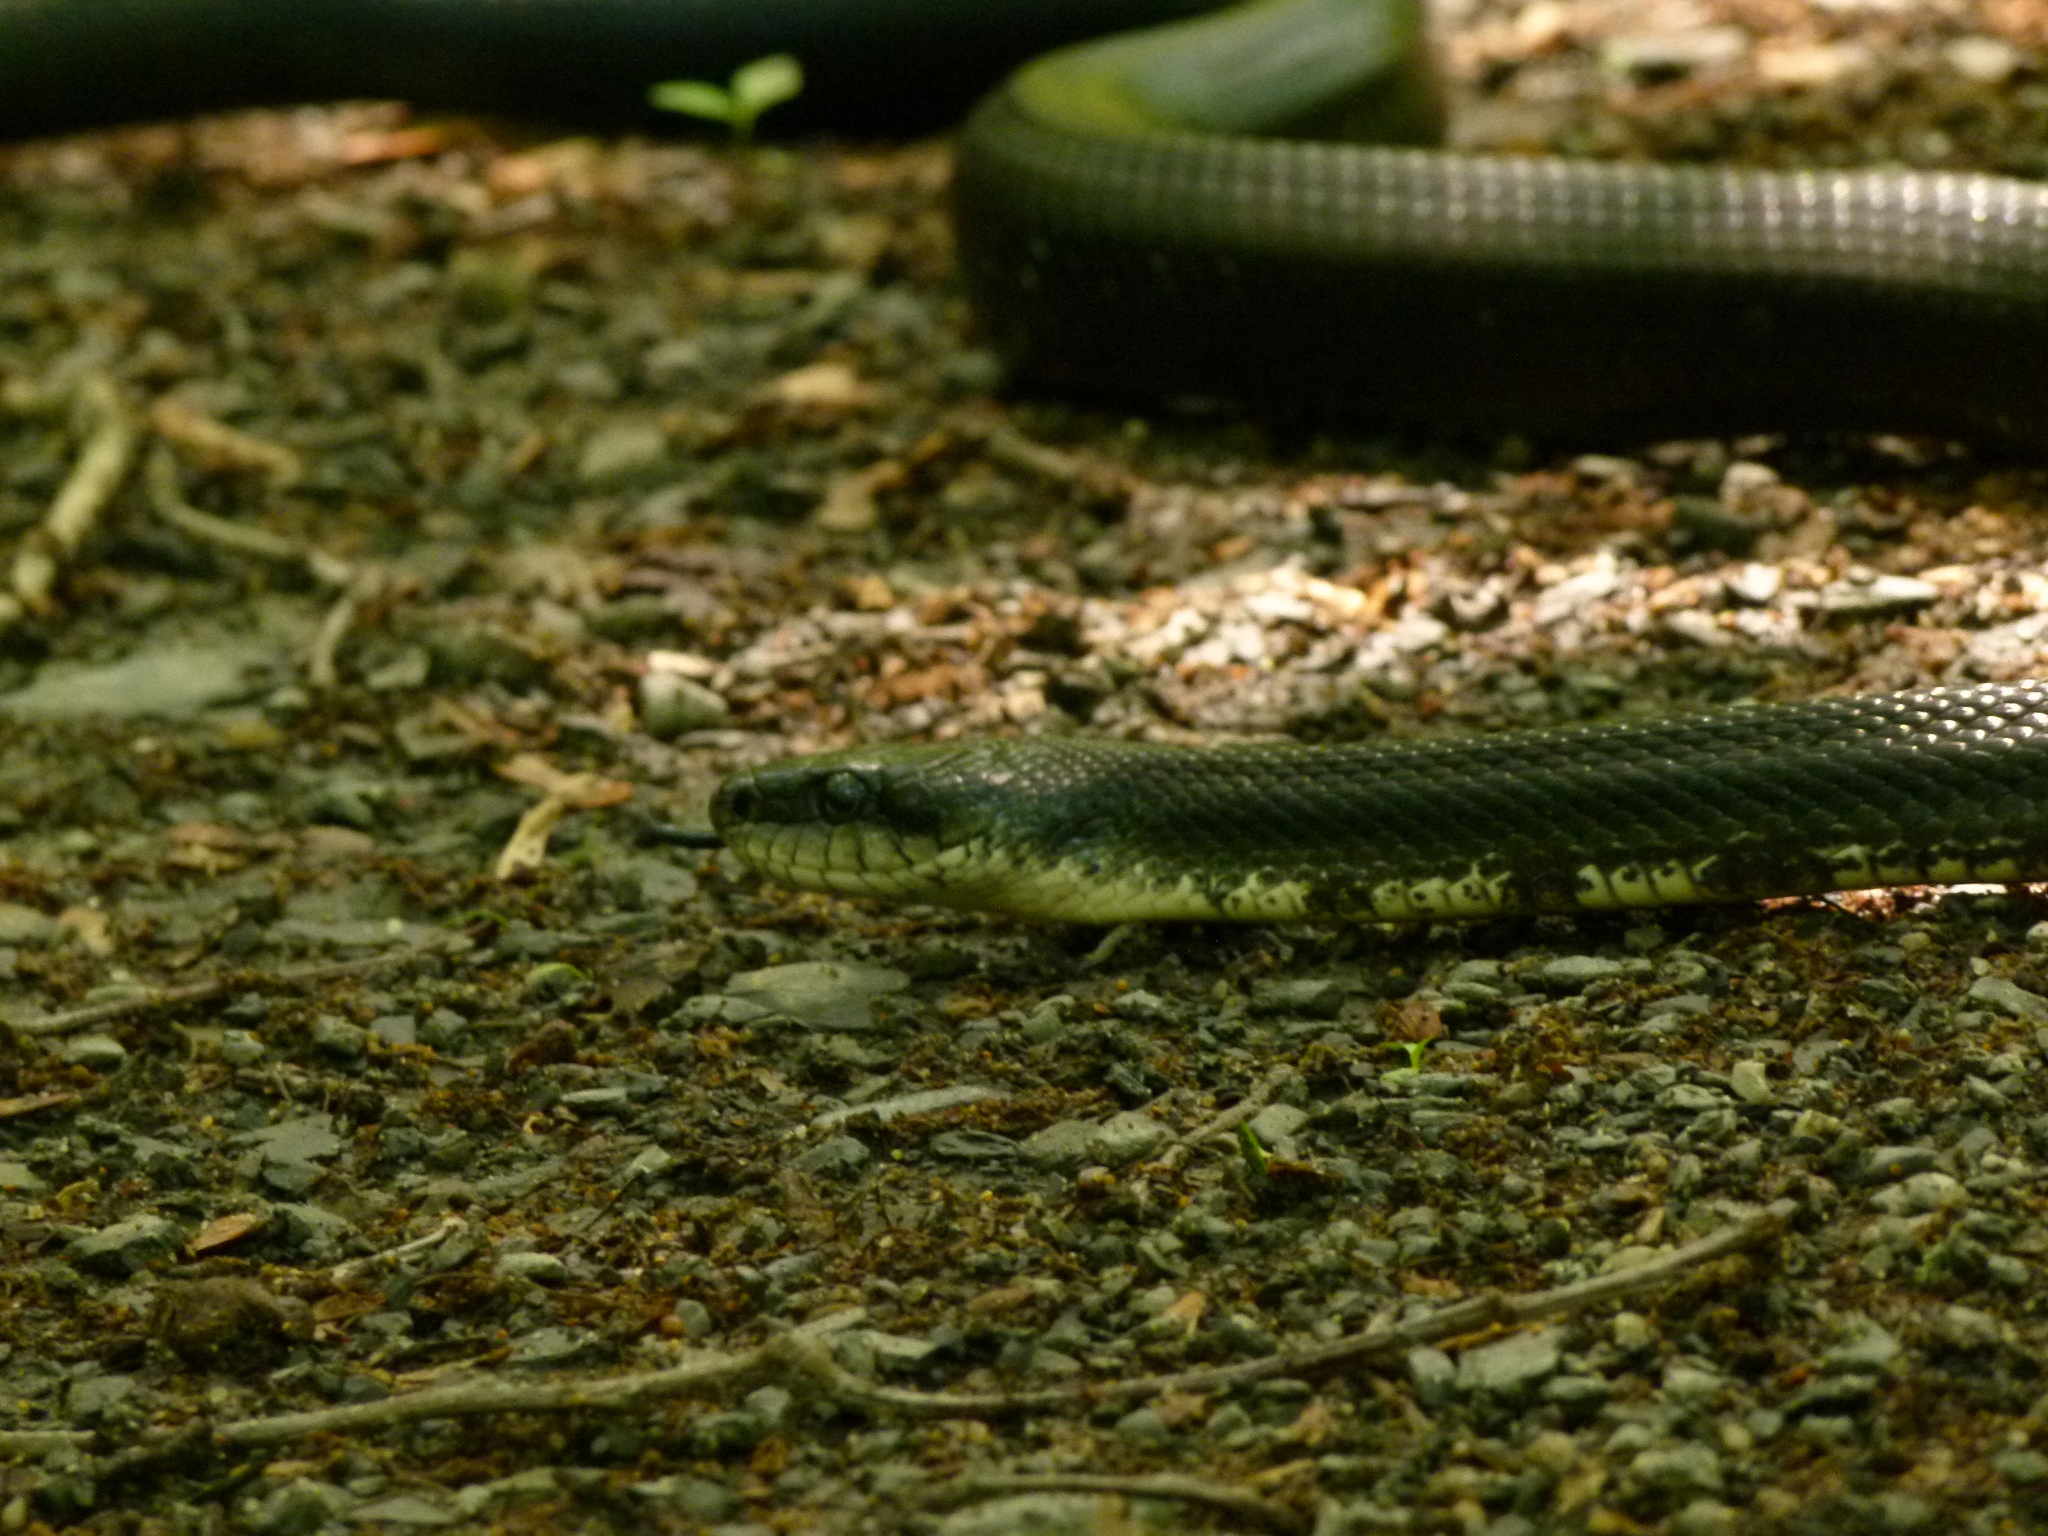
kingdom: Animalia
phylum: Chordata
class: Squamata
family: Colubridae
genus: Pantherophis
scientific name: Pantherophis alleghaniensis
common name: Eastern rat snake
